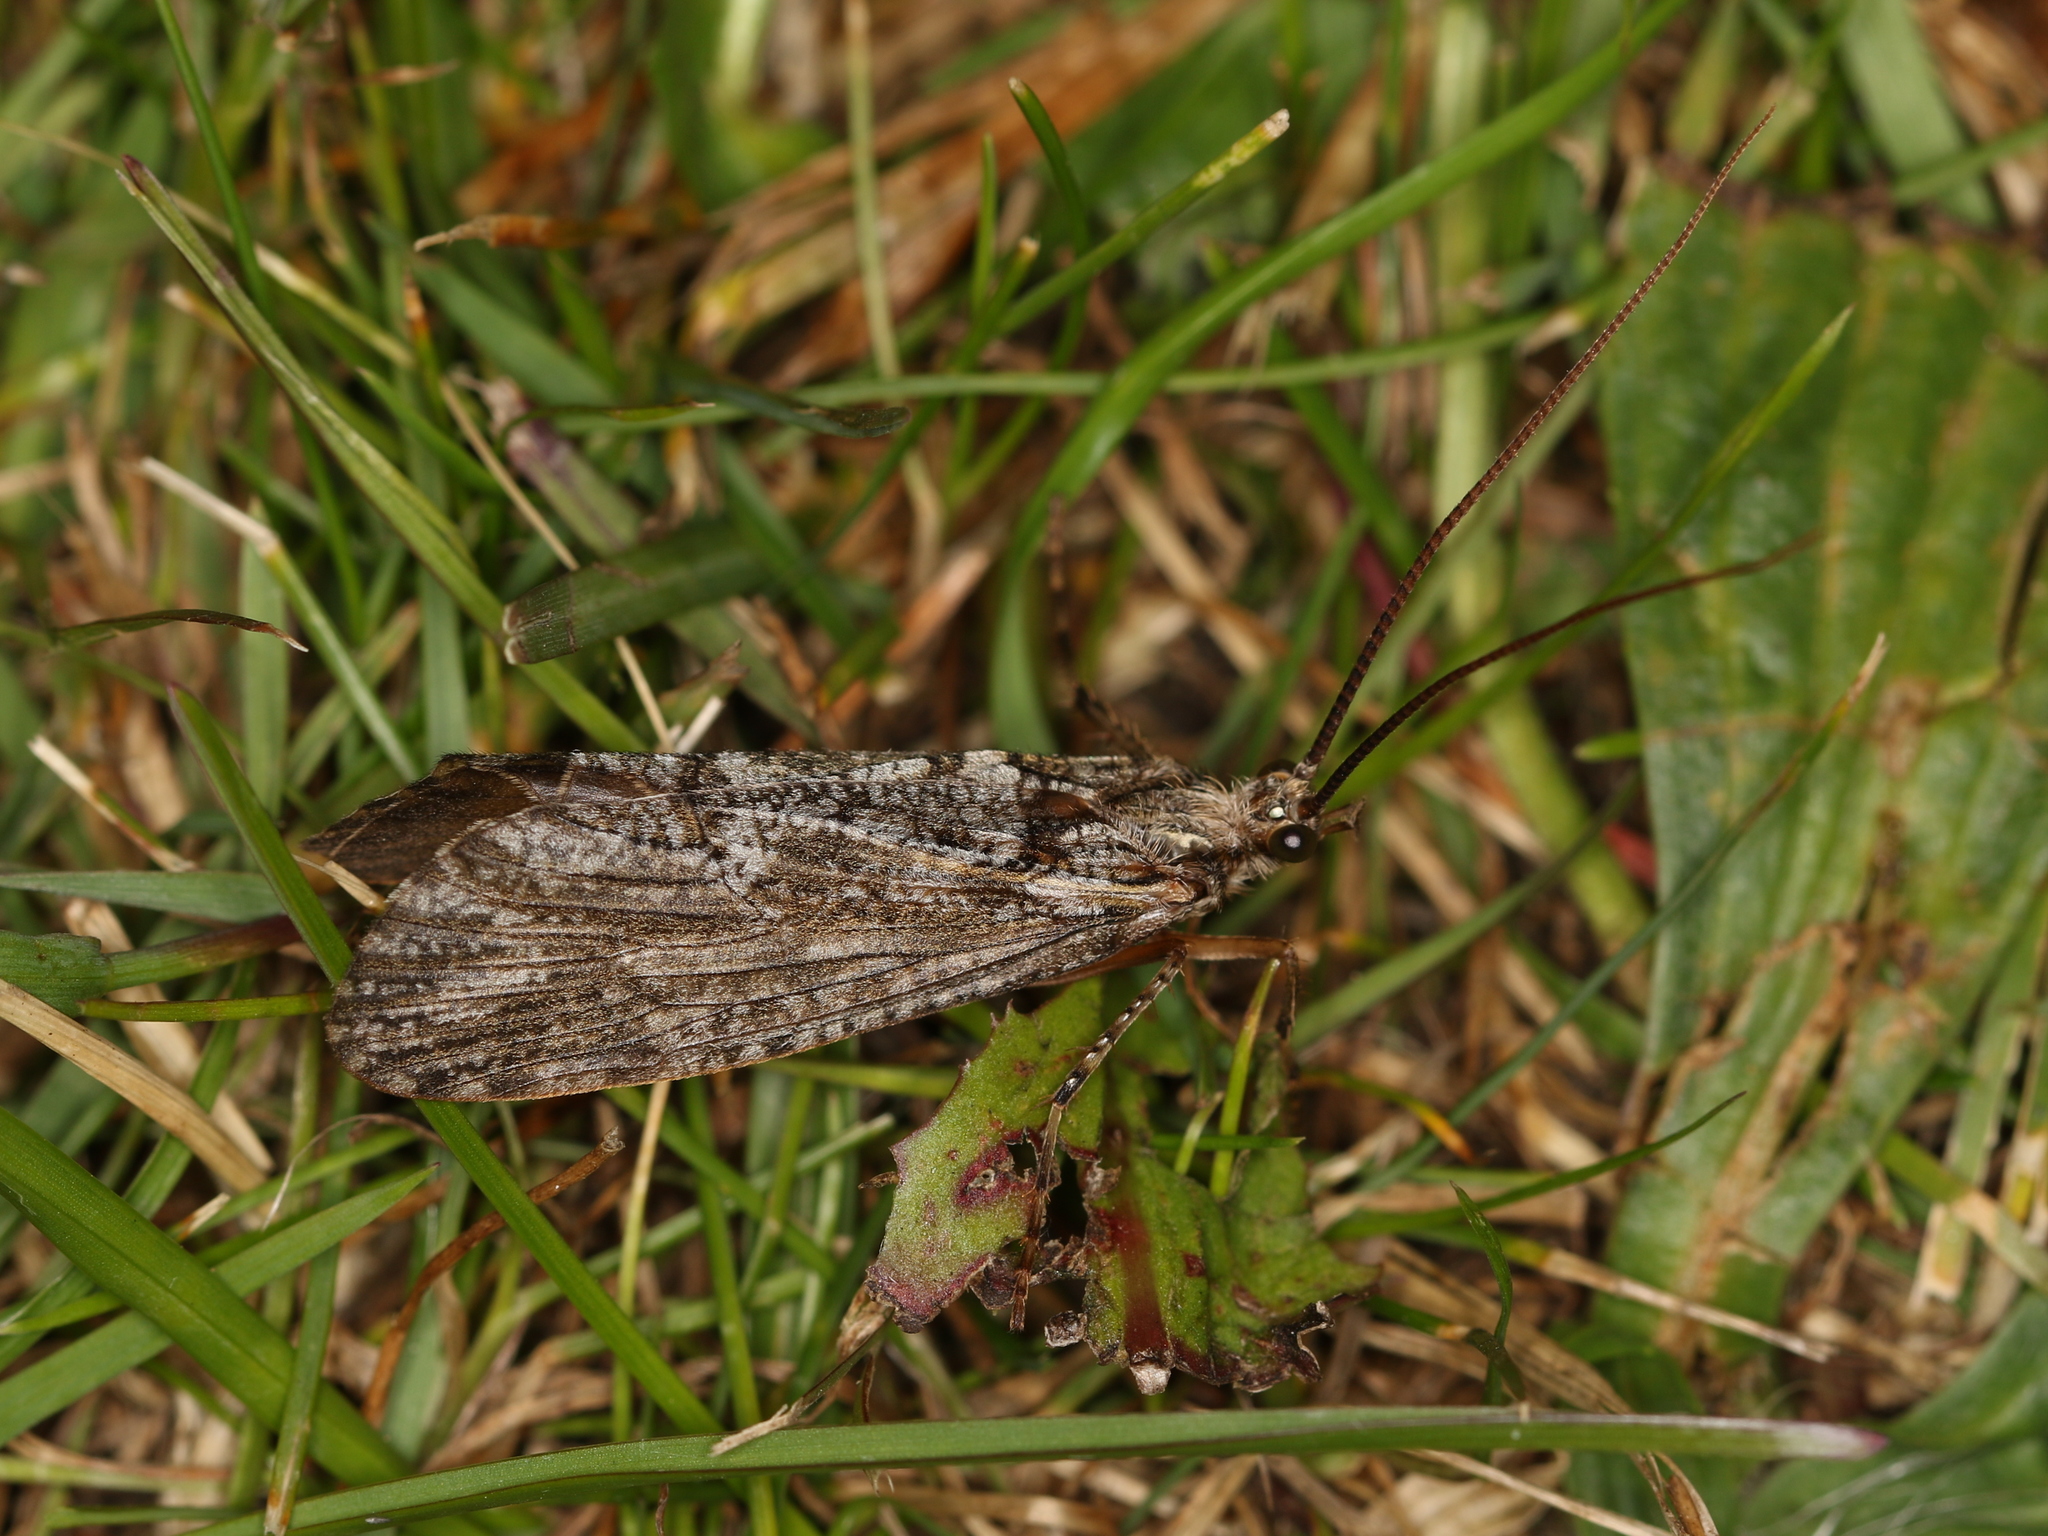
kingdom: Animalia
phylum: Arthropoda
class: Insecta
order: Trichoptera
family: Phryganeidae
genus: Phryganea
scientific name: Phryganea grandis
